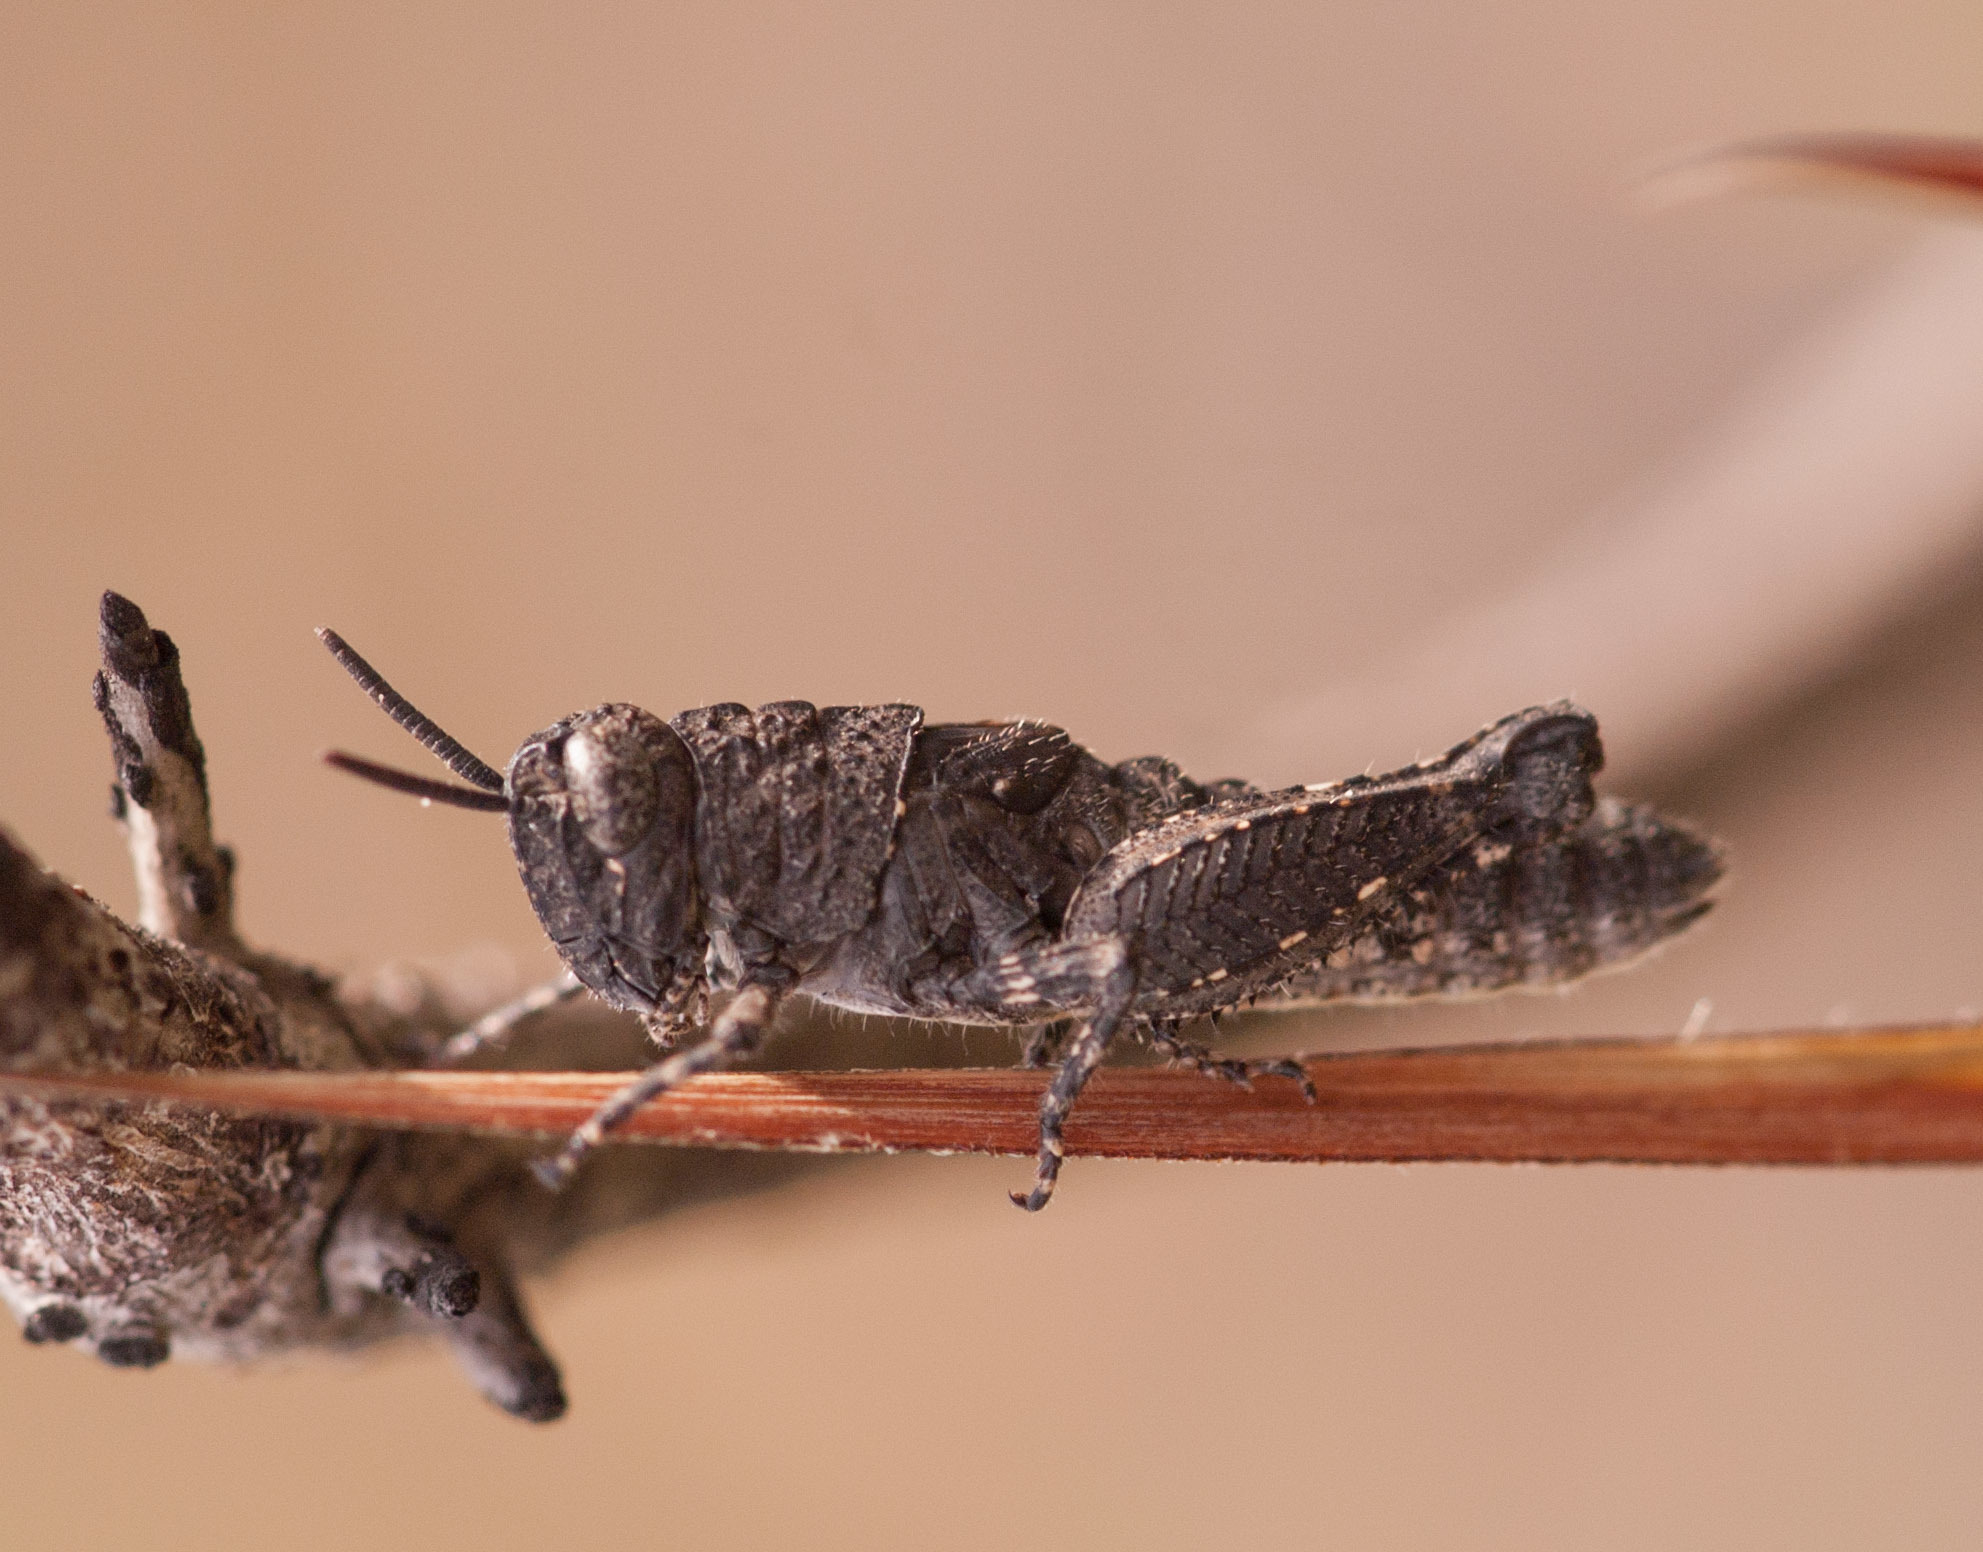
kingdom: Animalia
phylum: Arthropoda
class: Insecta
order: Orthoptera
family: Acrididae
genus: Cirphula
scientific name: Cirphula pyrrhocnemis
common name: Variable cirphula
